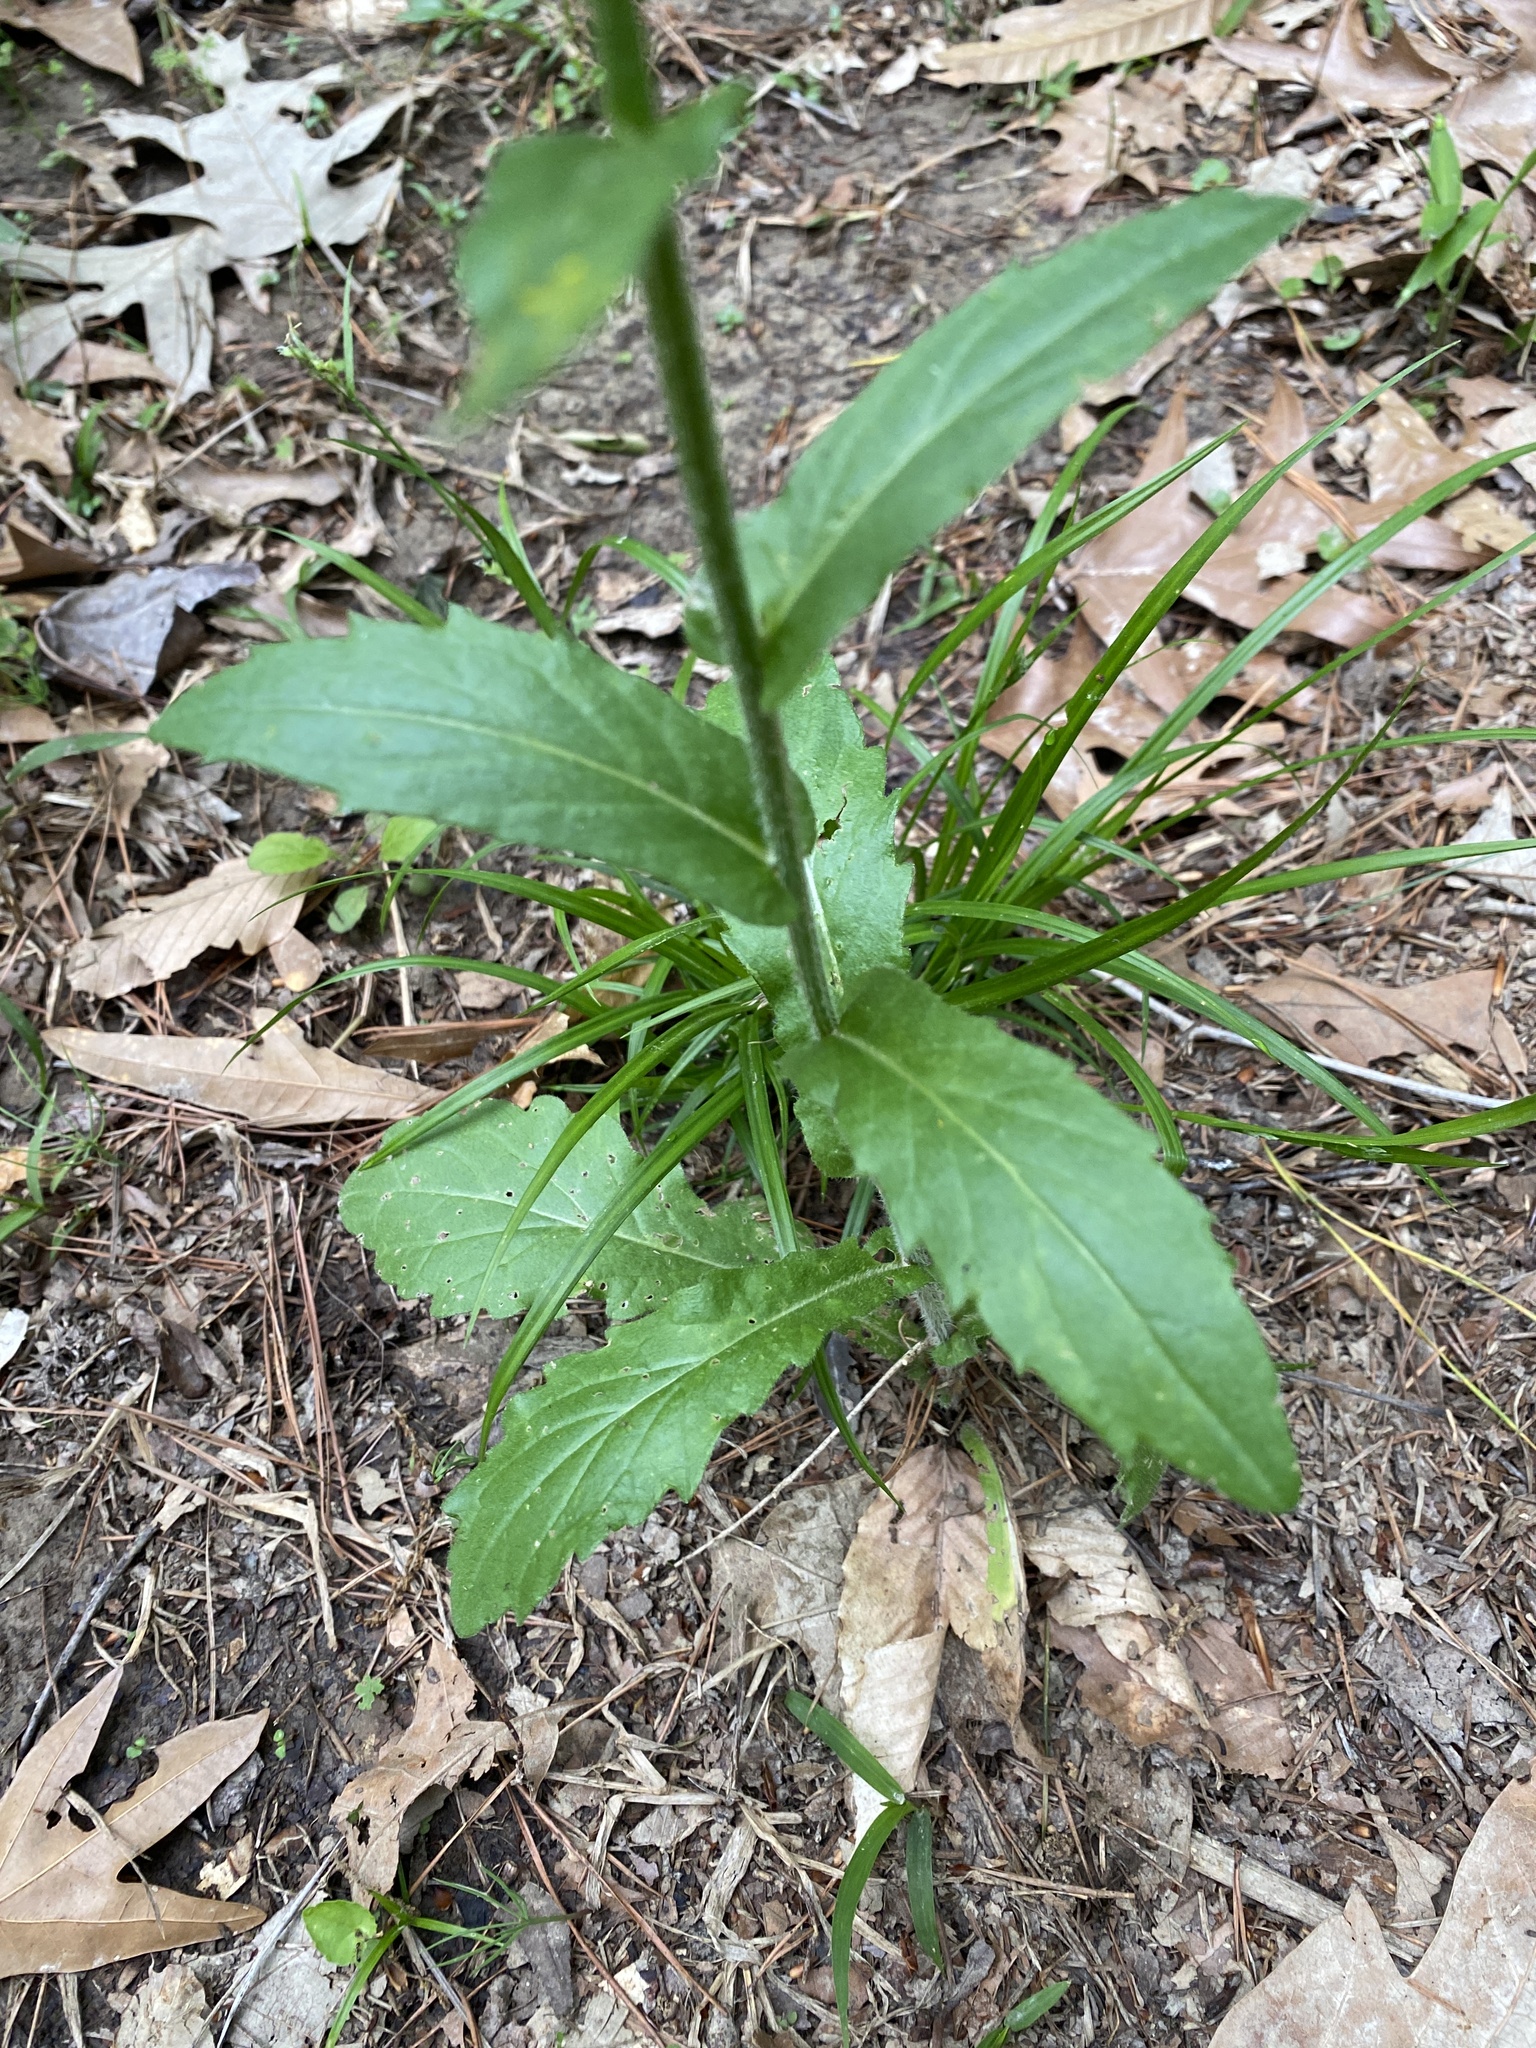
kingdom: Plantae
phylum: Tracheophyta
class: Magnoliopsida
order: Asterales
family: Asteraceae
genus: Erigeron
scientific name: Erigeron philadelphicus
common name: Robin's-plantain
